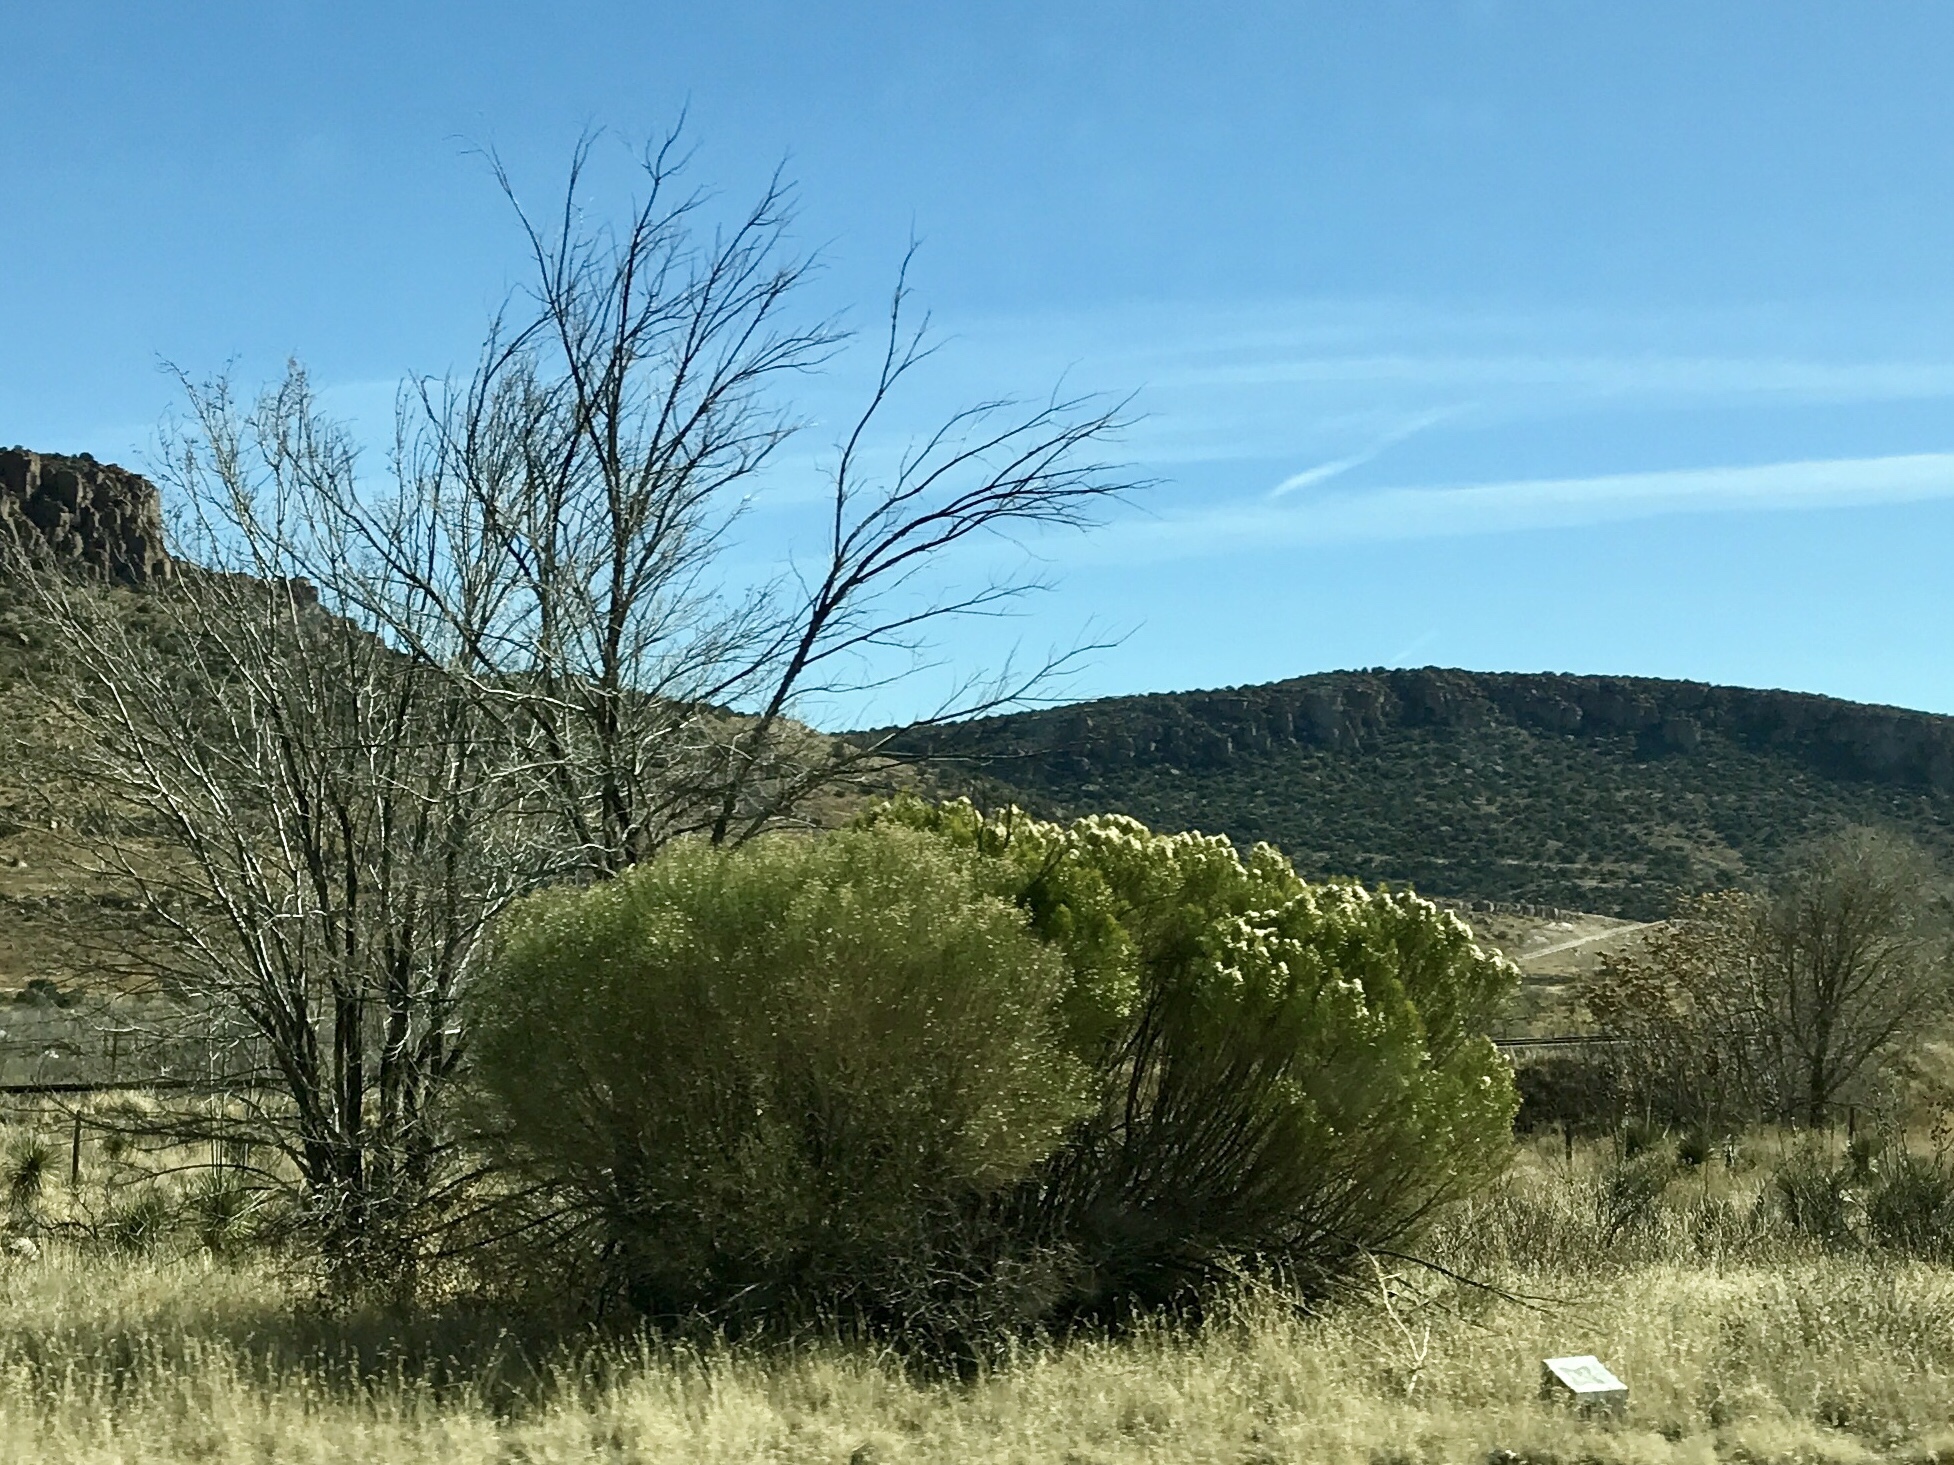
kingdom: Plantae
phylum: Tracheophyta
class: Magnoliopsida
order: Asterales
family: Asteraceae
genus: Baccharis
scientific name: Baccharis sarothroides
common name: Desert-broom
